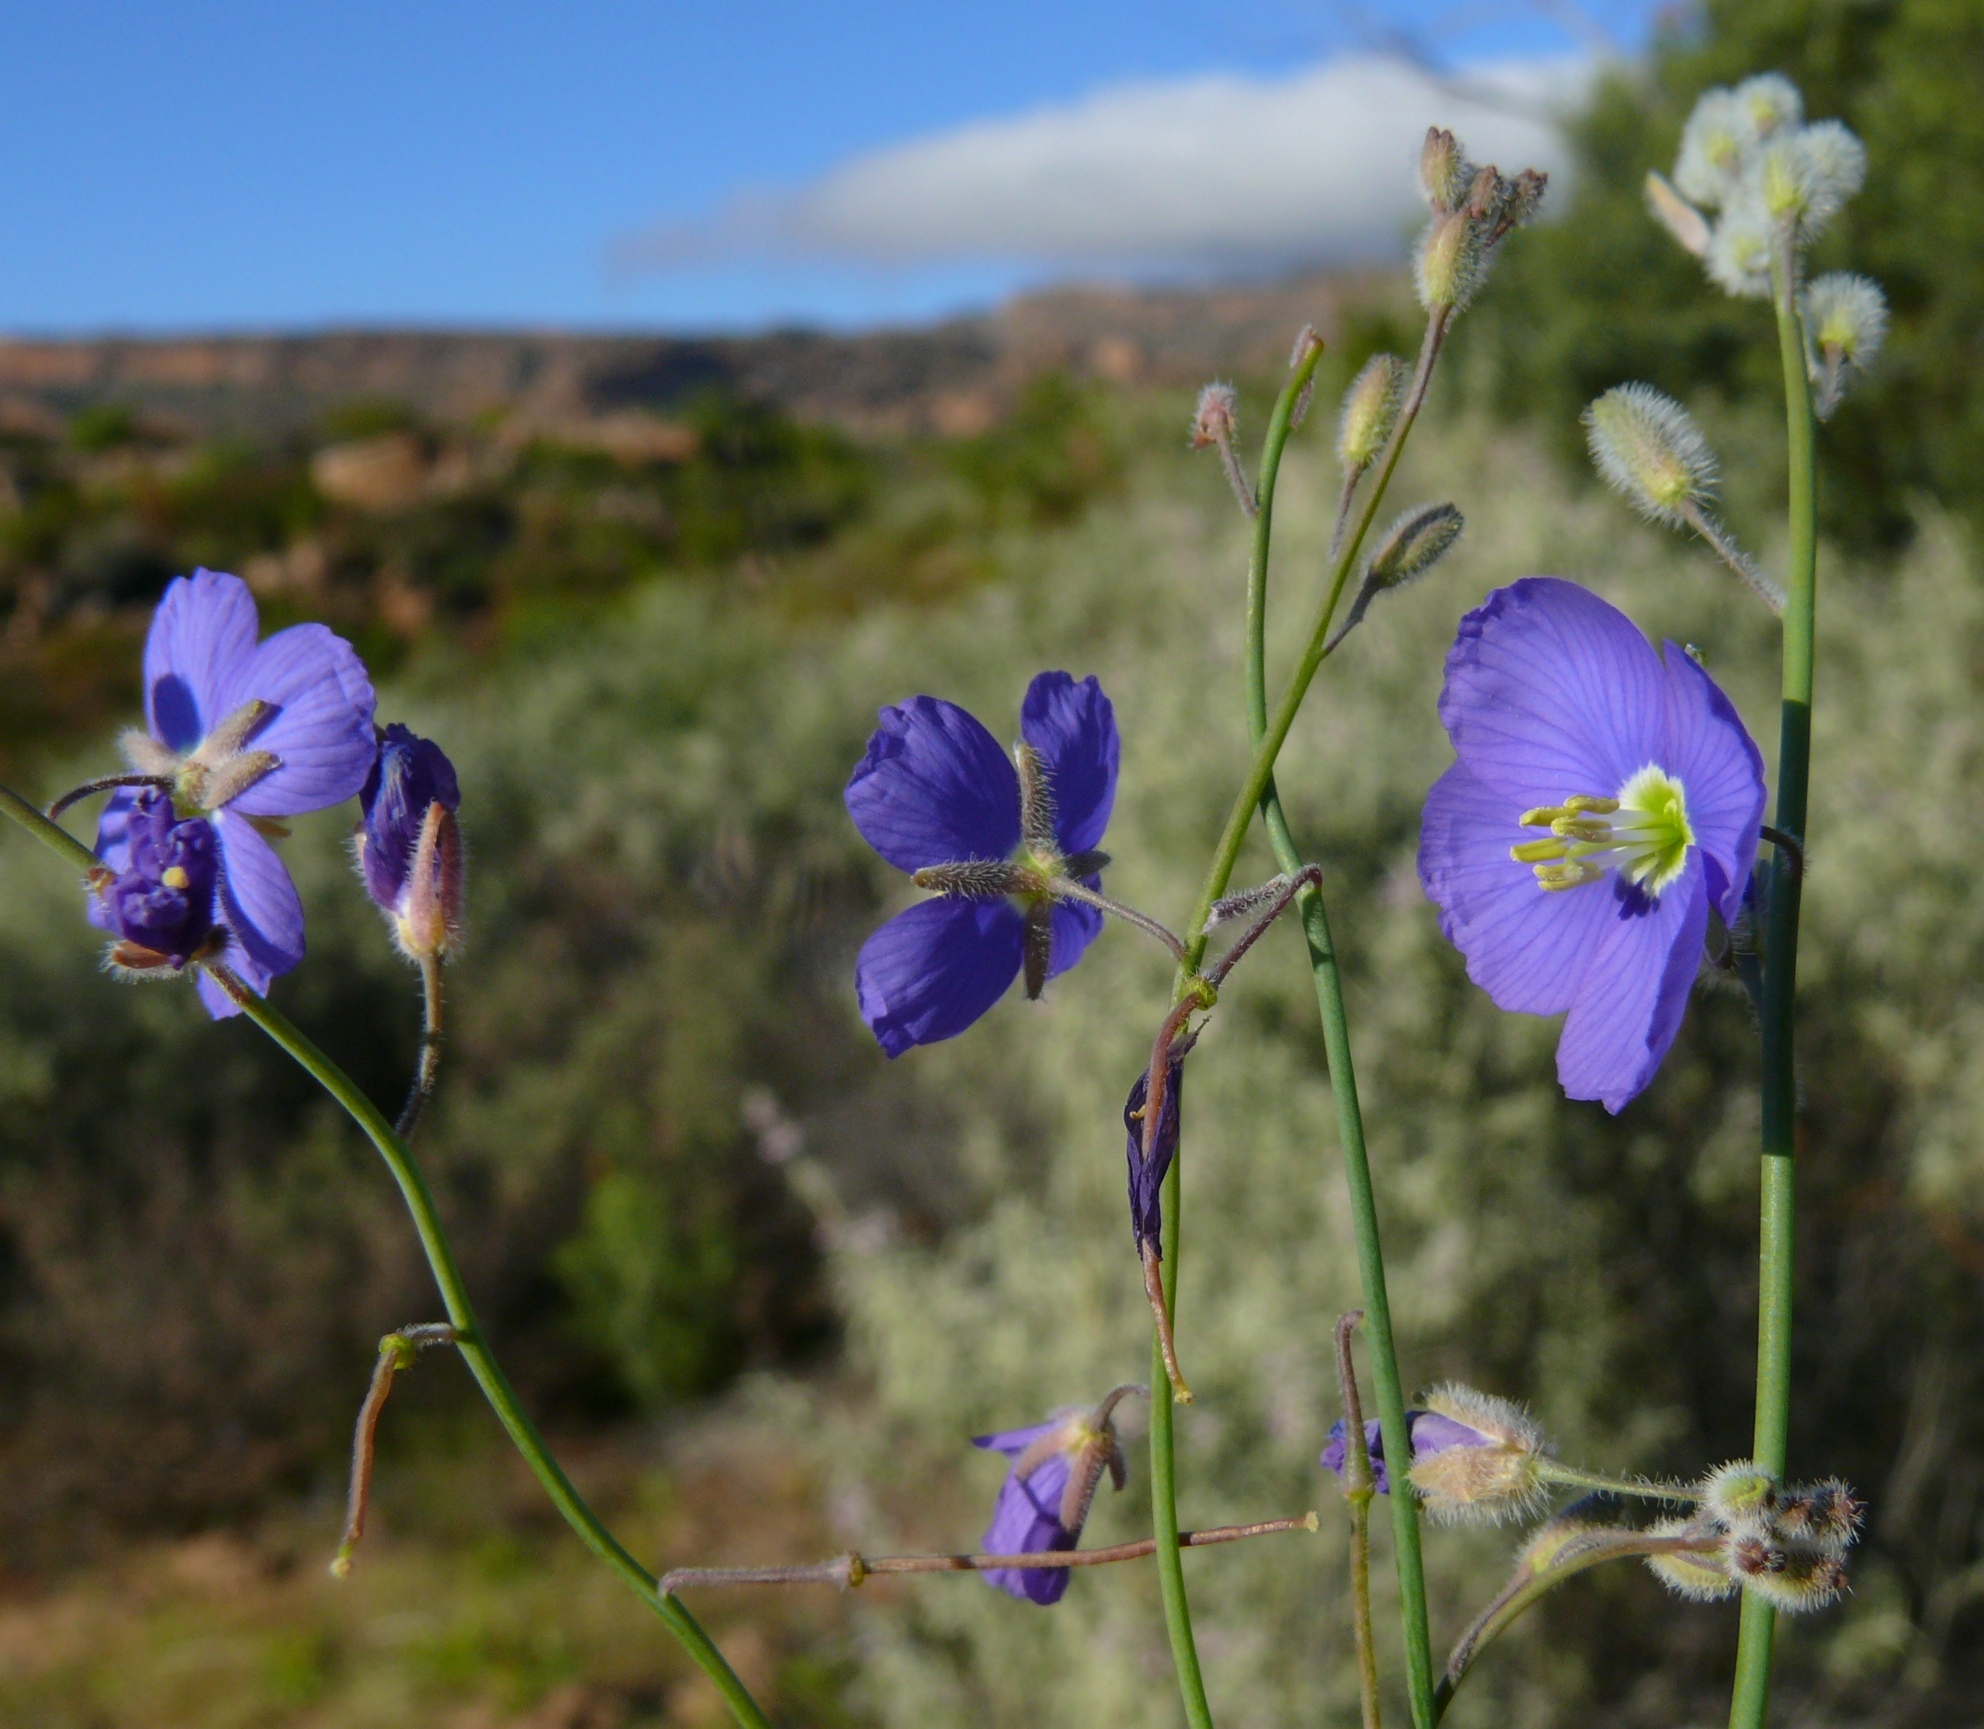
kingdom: Plantae
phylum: Tracheophyta
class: Magnoliopsida
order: Brassicales
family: Brassicaceae
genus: Heliophila
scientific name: Heliophila arenaria
